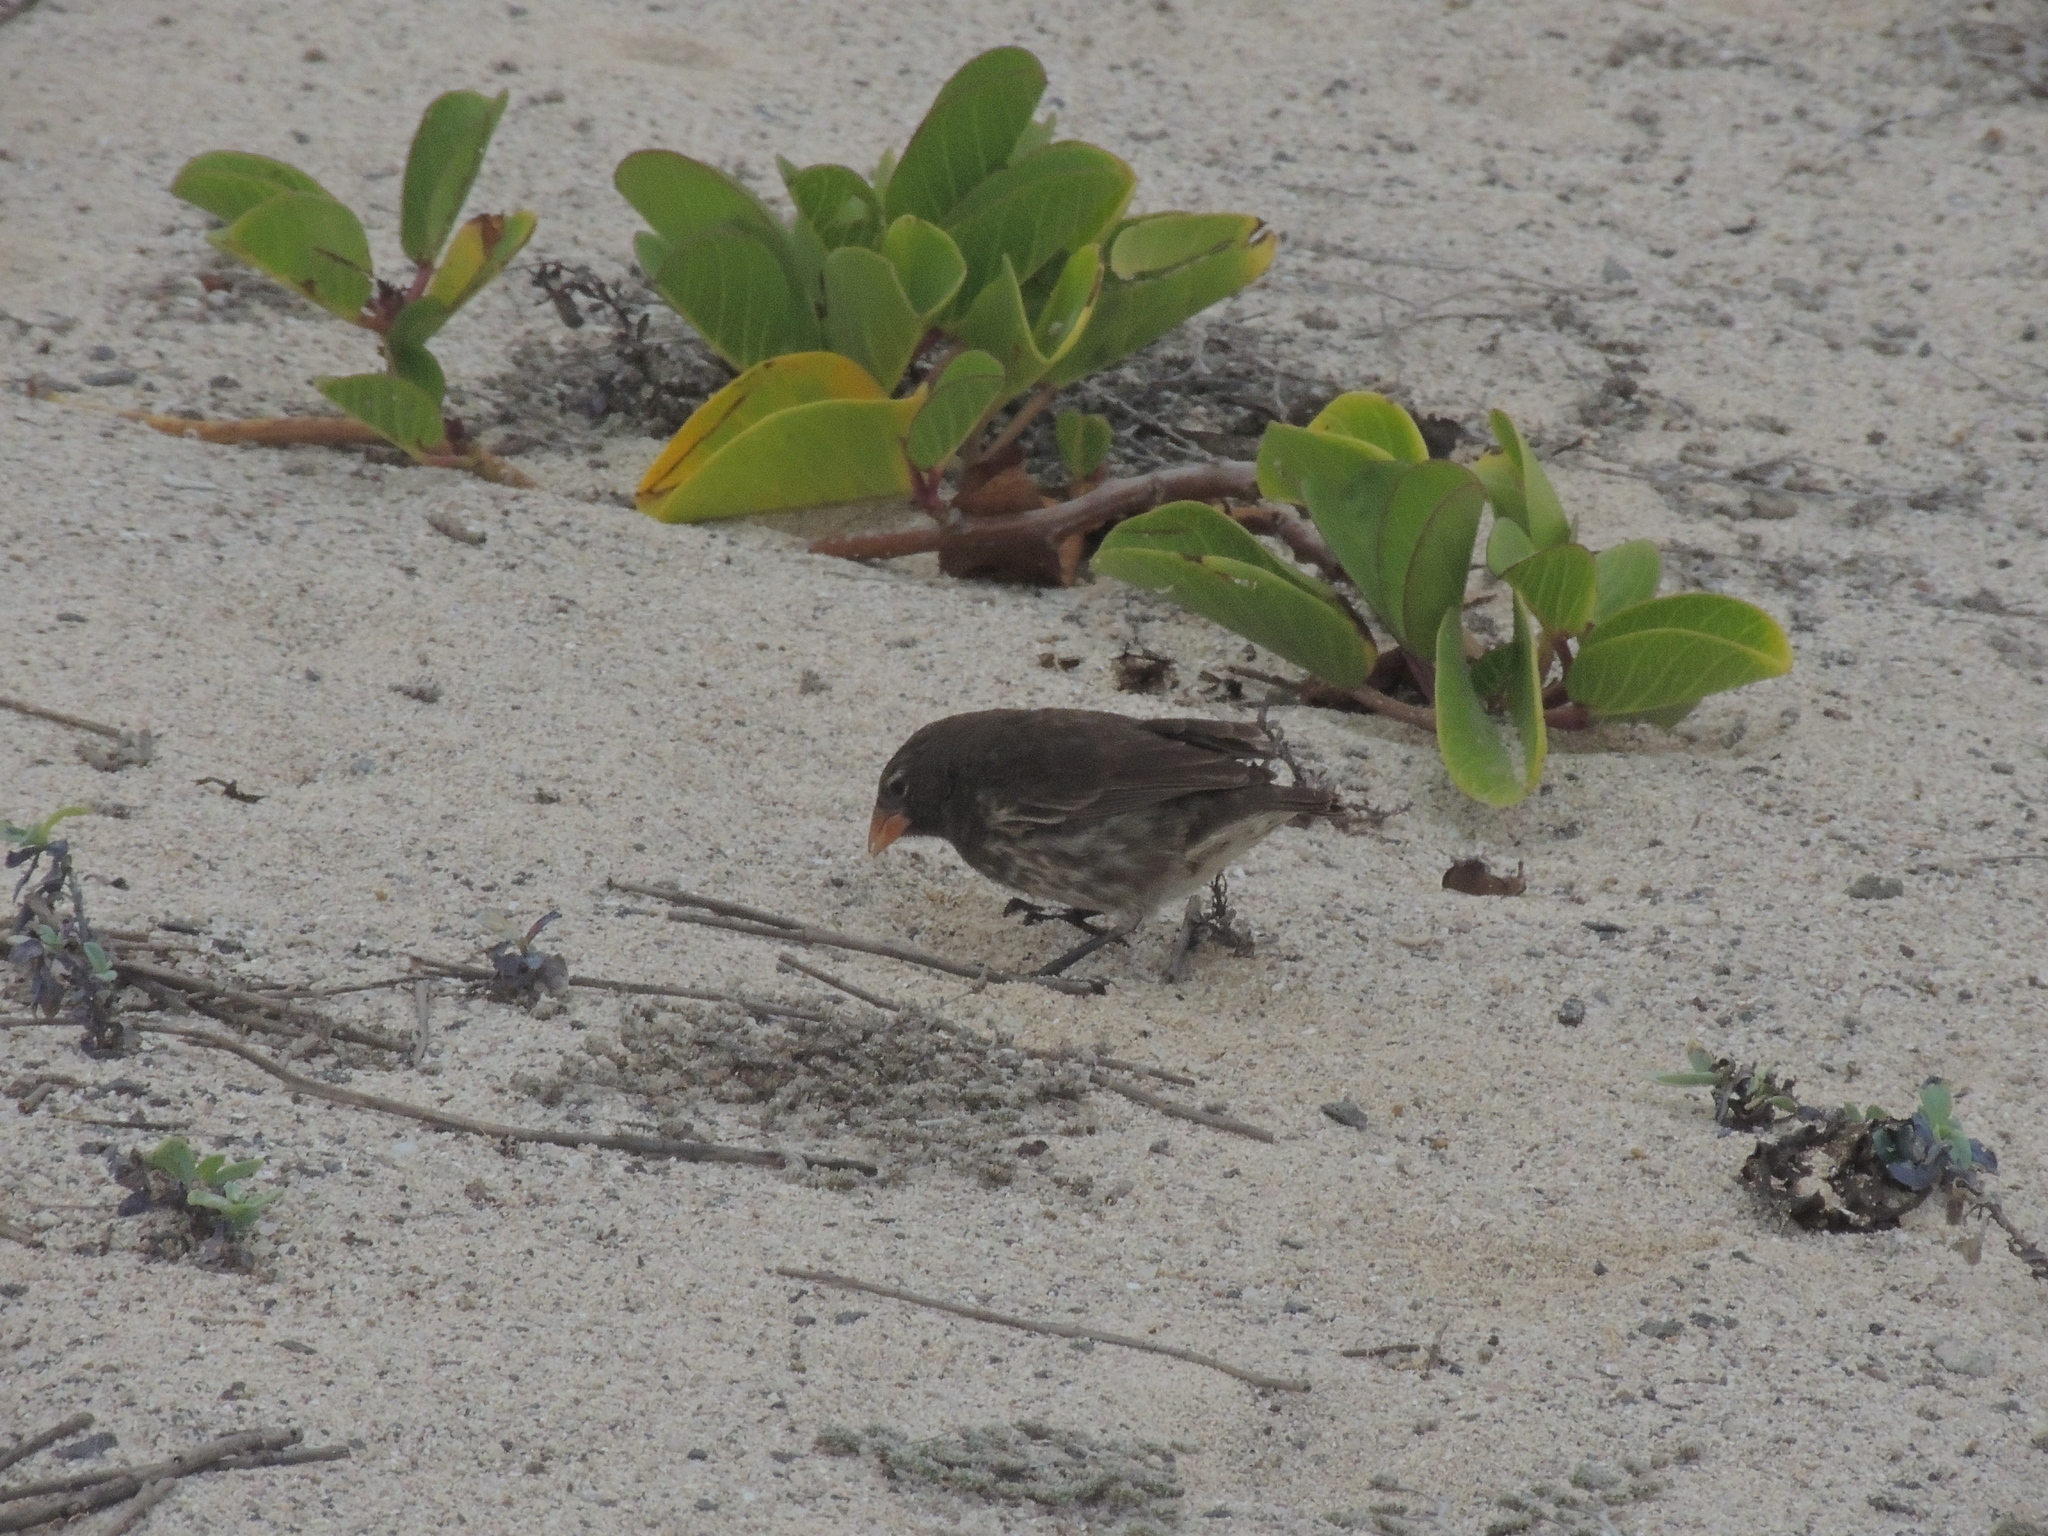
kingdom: Animalia
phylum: Chordata
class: Aves
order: Passeriformes
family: Thraupidae
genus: Geospiza
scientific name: Geospiza fuliginosa
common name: Small ground finch
